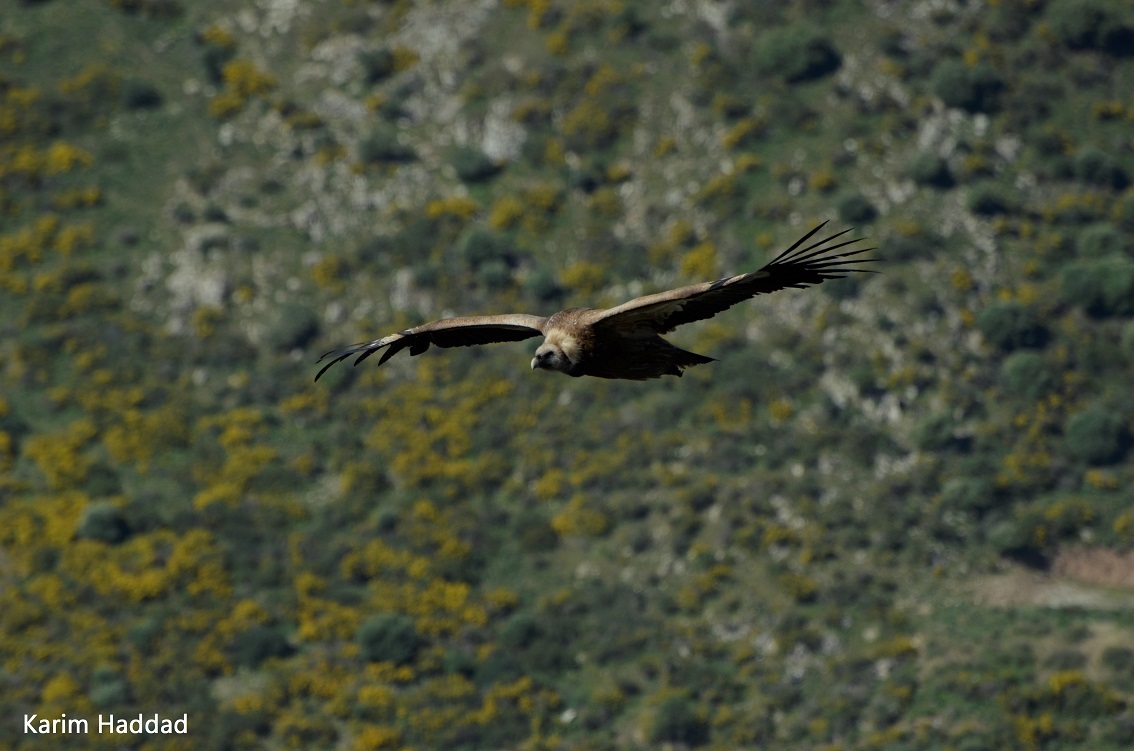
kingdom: Animalia
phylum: Chordata
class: Aves
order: Accipitriformes
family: Accipitridae
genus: Gyps
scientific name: Gyps fulvus
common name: Griffon vulture
